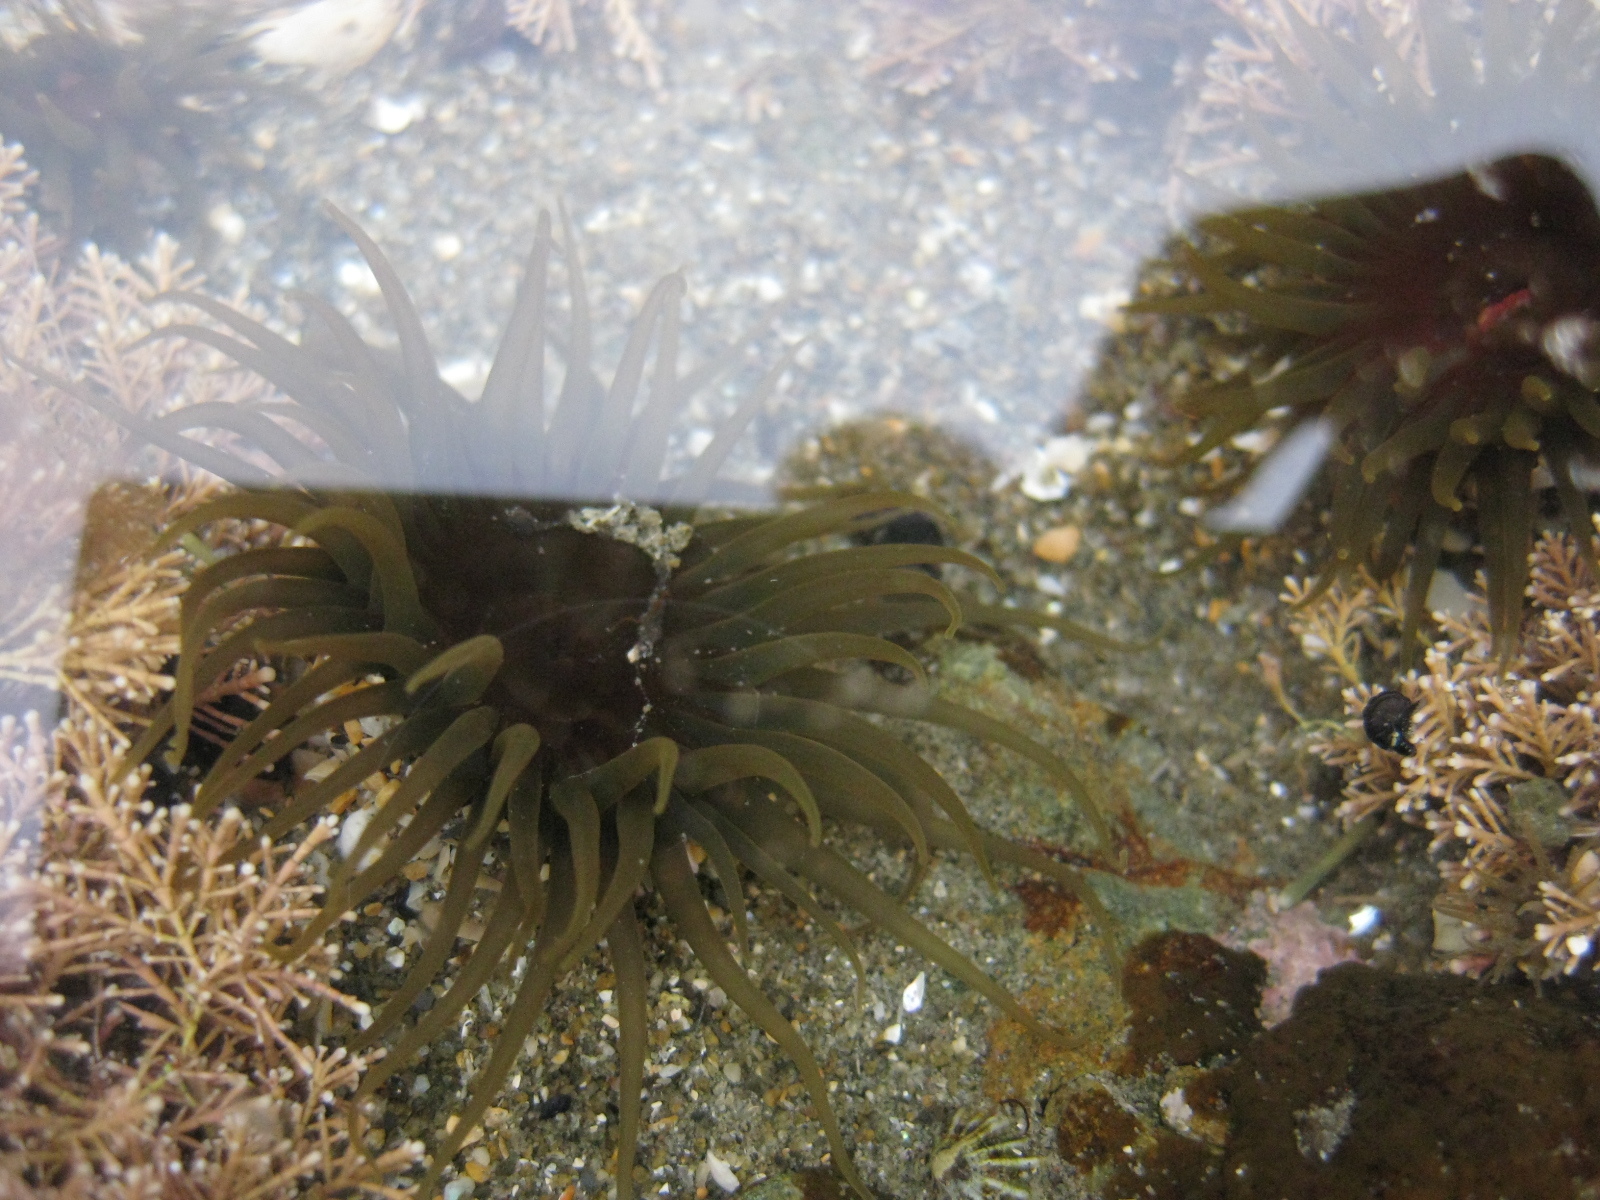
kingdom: Animalia
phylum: Cnidaria
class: Anthozoa
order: Actiniaria
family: Actiniidae
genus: Isactinia
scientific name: Isactinia olivacea
